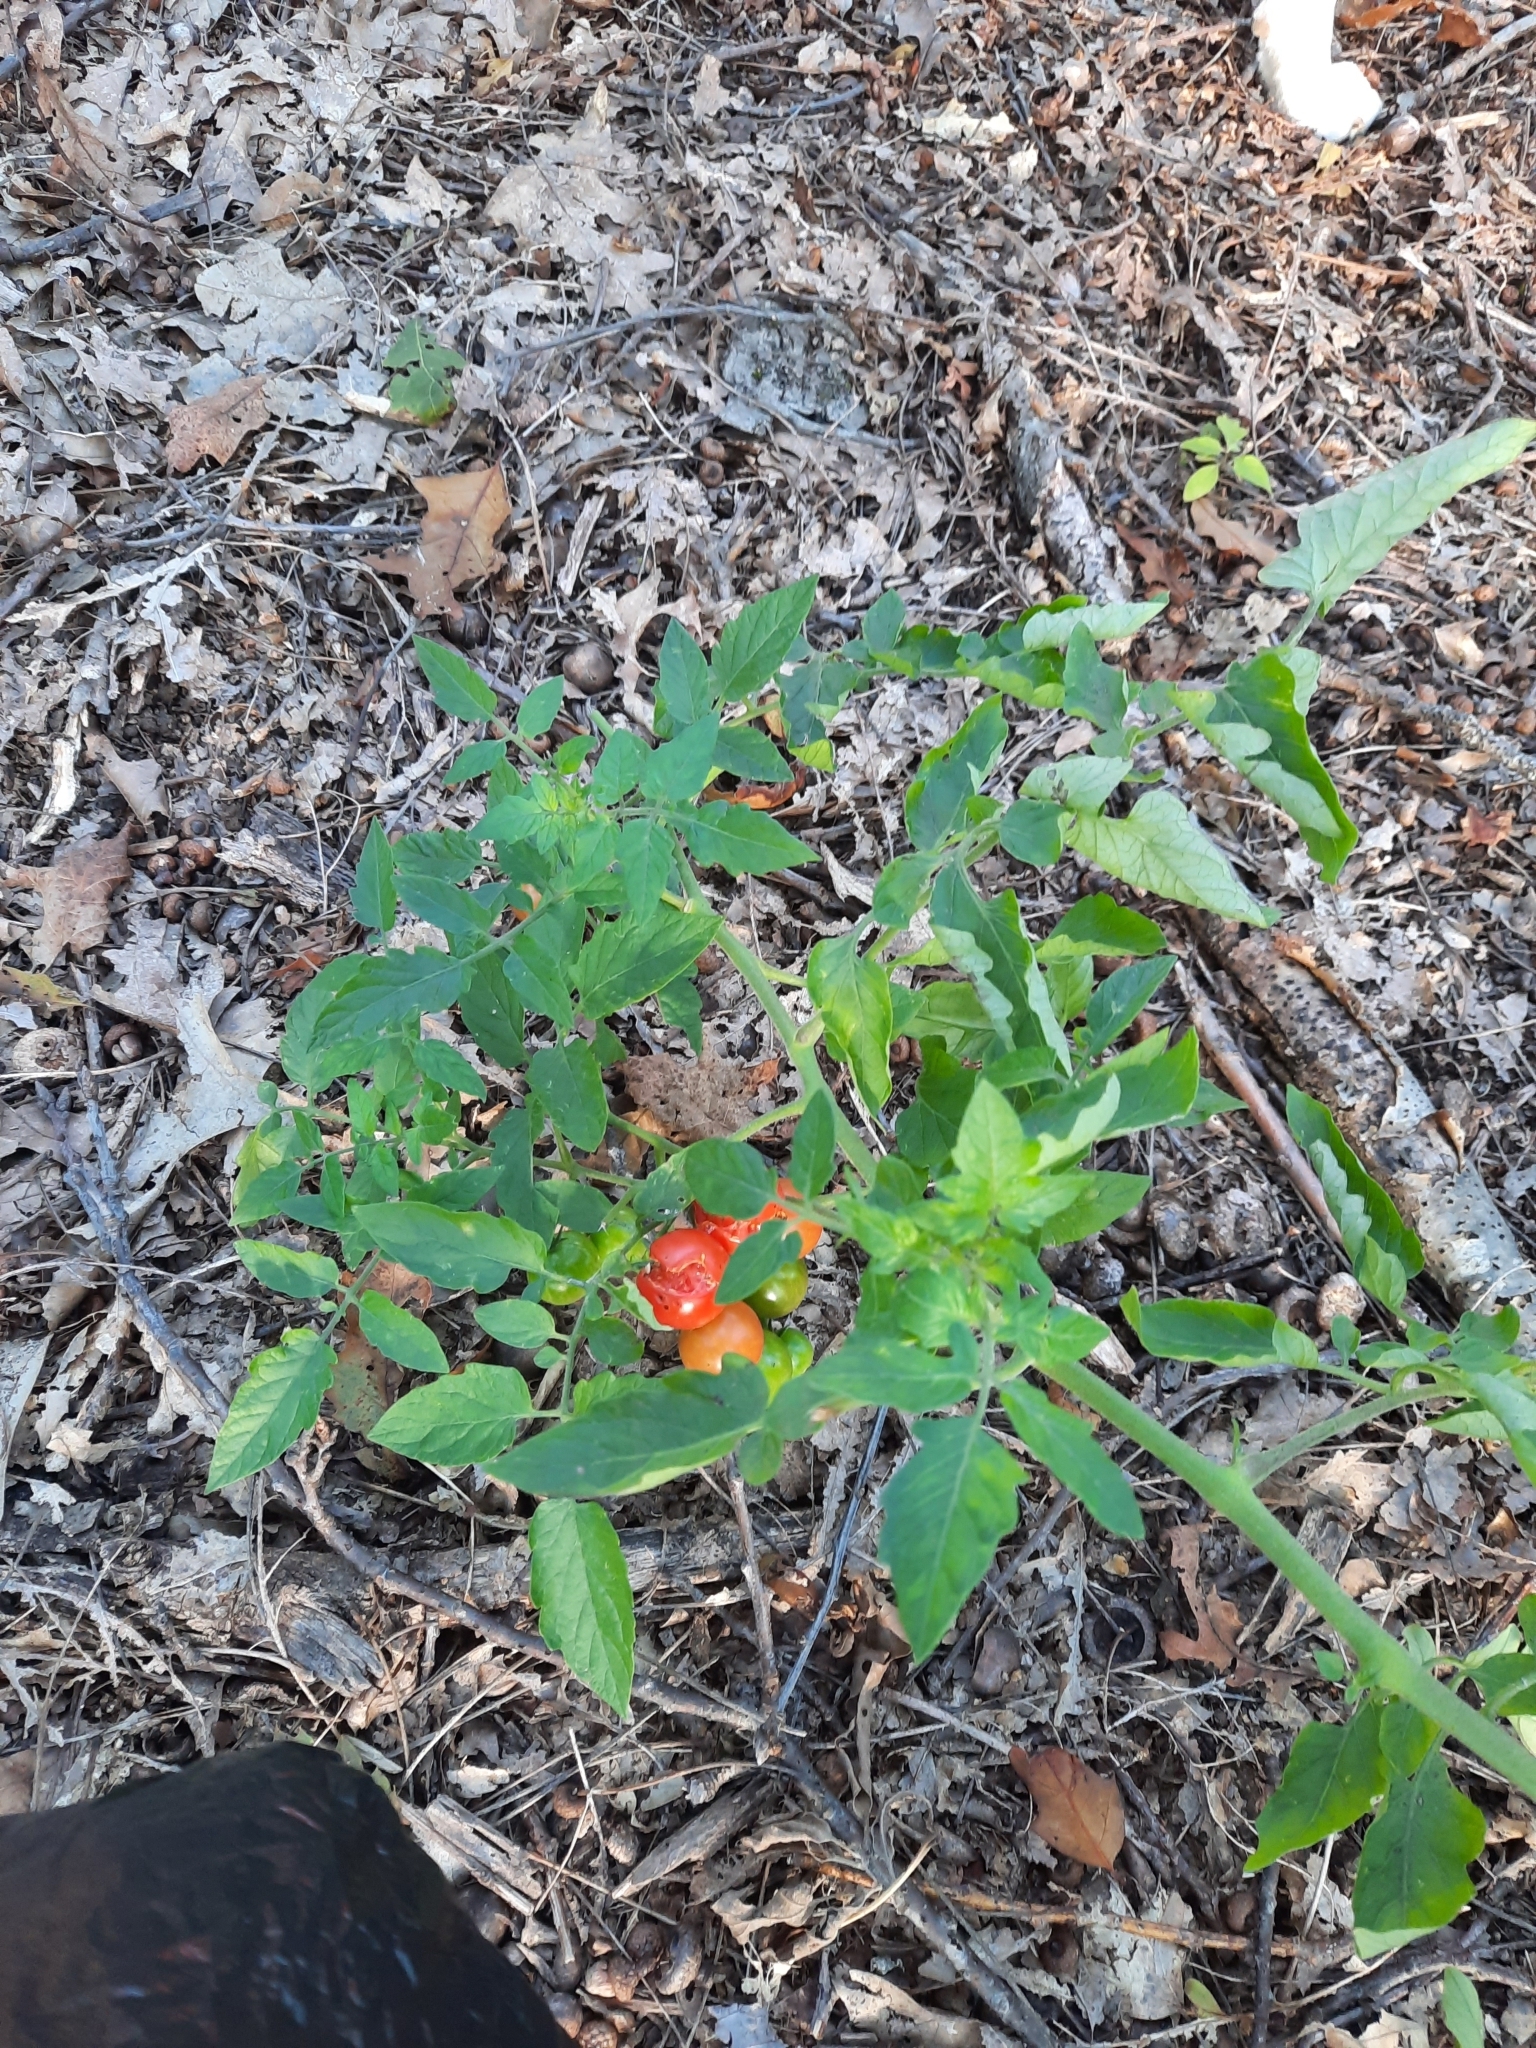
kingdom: Plantae
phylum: Tracheophyta
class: Magnoliopsida
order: Solanales
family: Solanaceae
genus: Solanum
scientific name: Solanum lycopersicum
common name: Garden tomato
